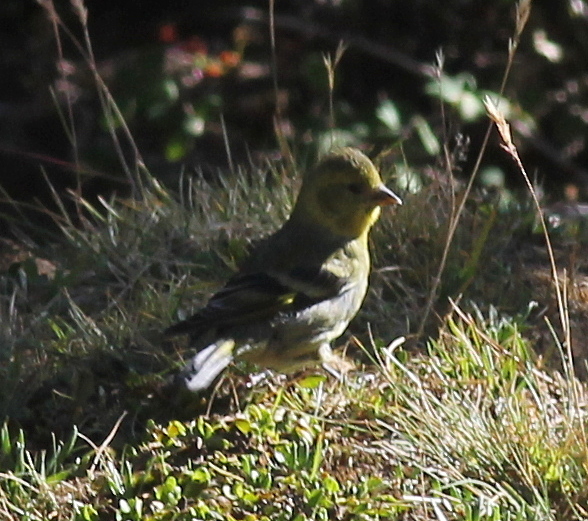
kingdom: Animalia
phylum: Chordata
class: Aves
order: Passeriformes
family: Fringillidae
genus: Spinus
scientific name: Spinus barbatus
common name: Black-chinned siskin
